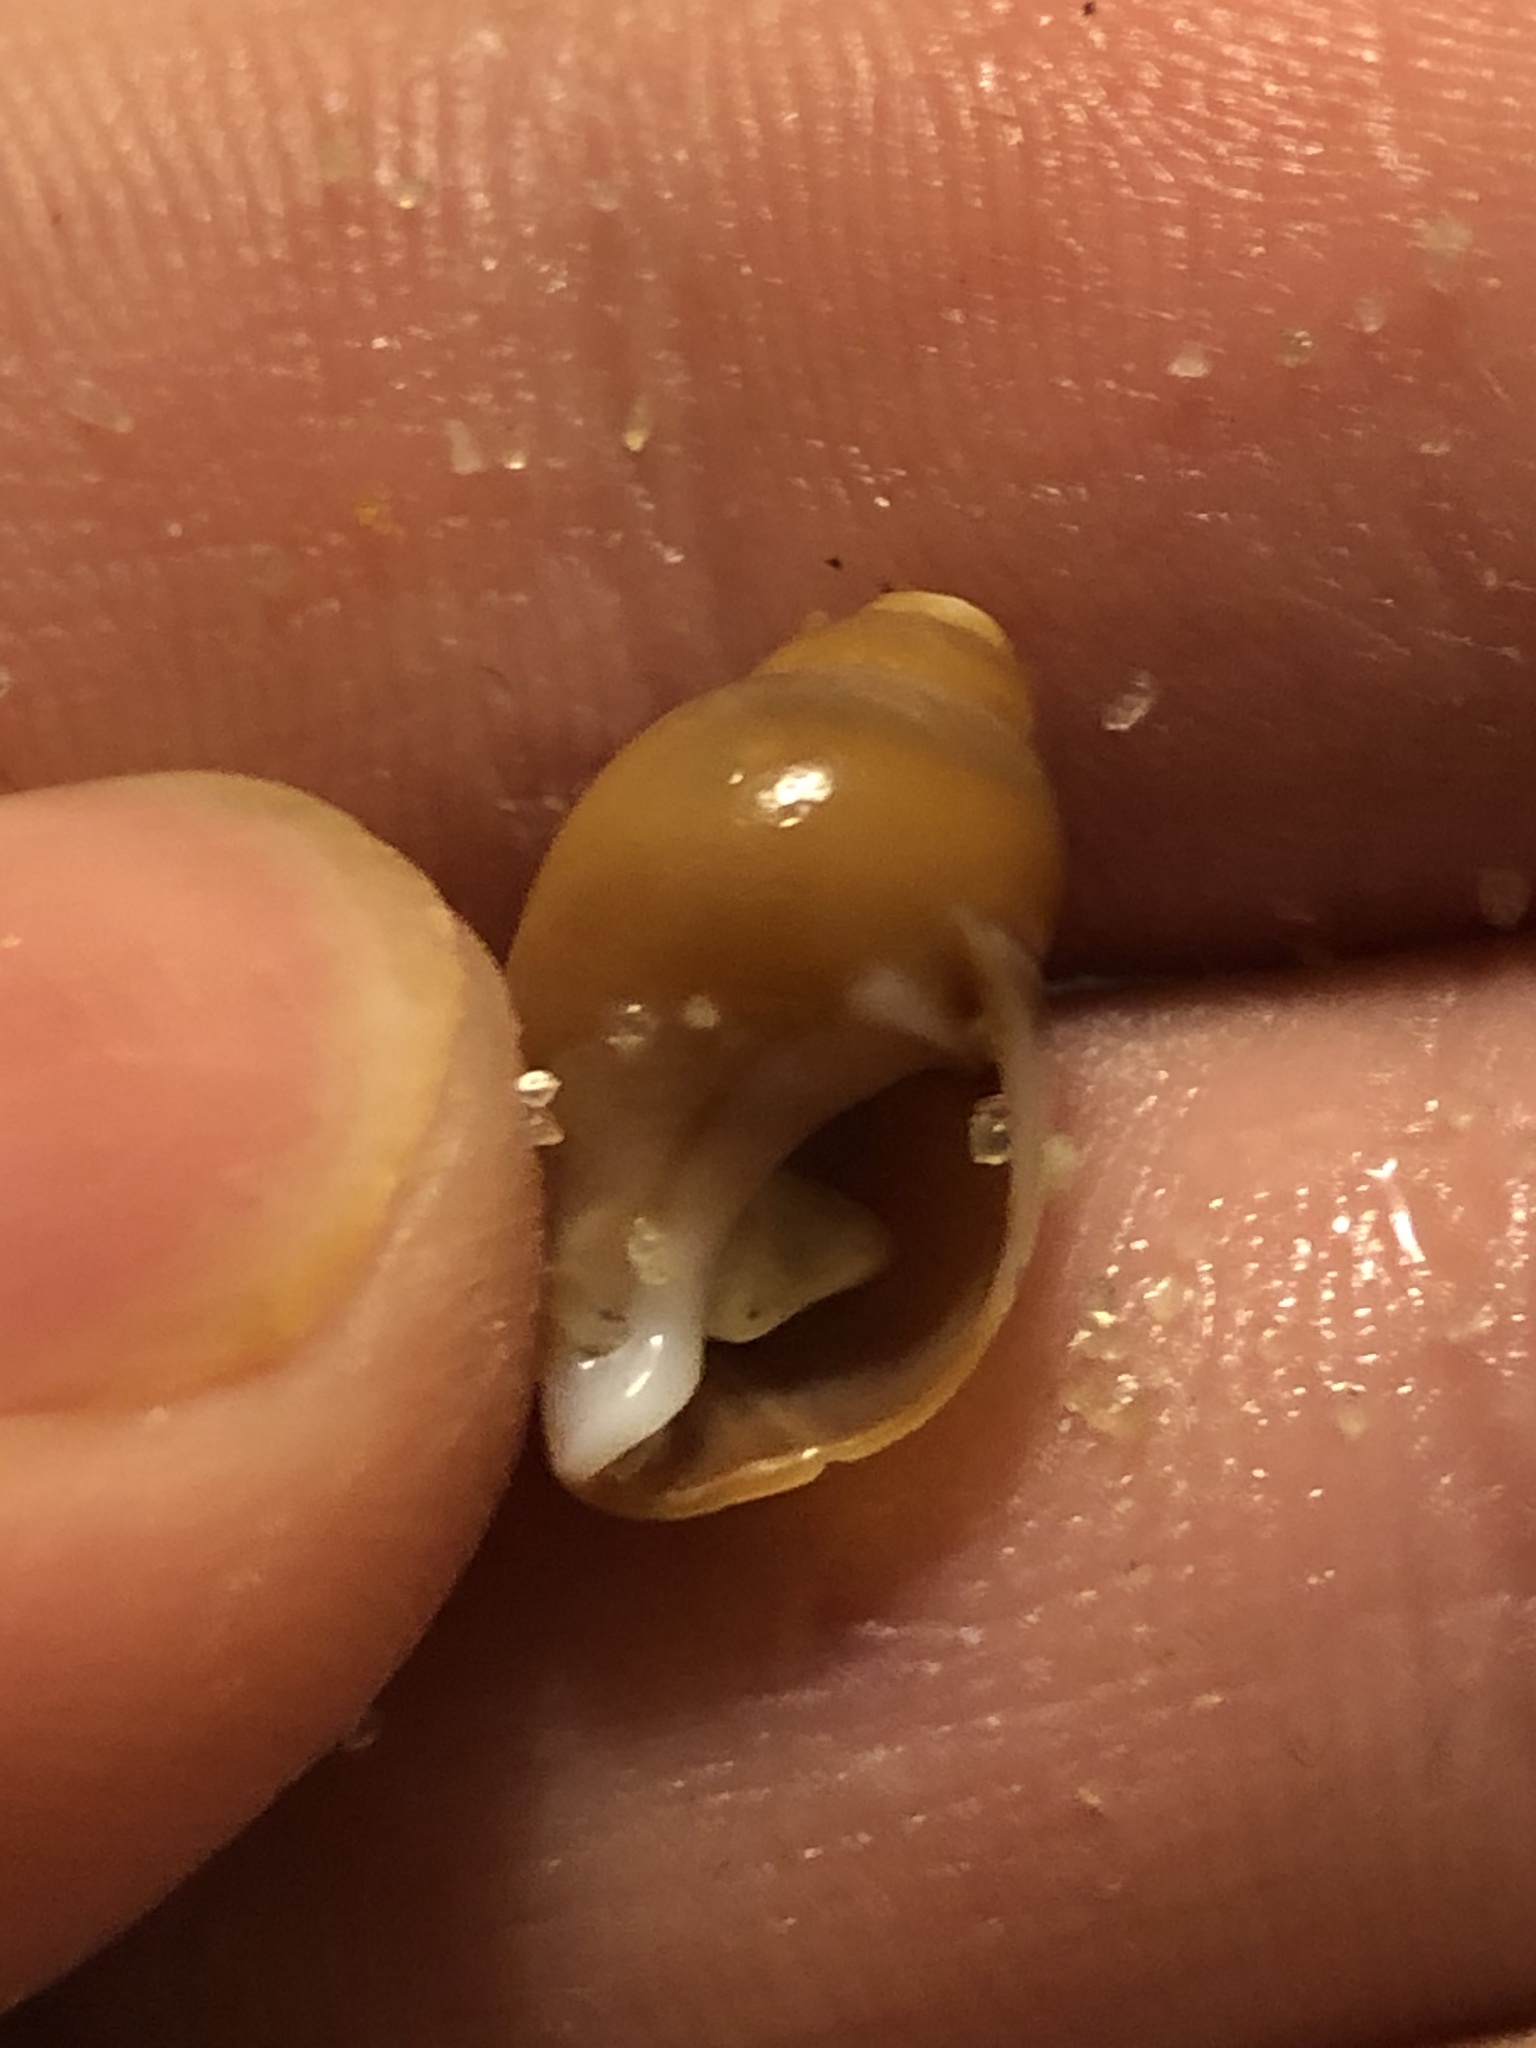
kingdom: Animalia
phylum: Mollusca
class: Gastropoda
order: Neogastropoda
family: Pseudolividae
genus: Macron
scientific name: Macron lividus
